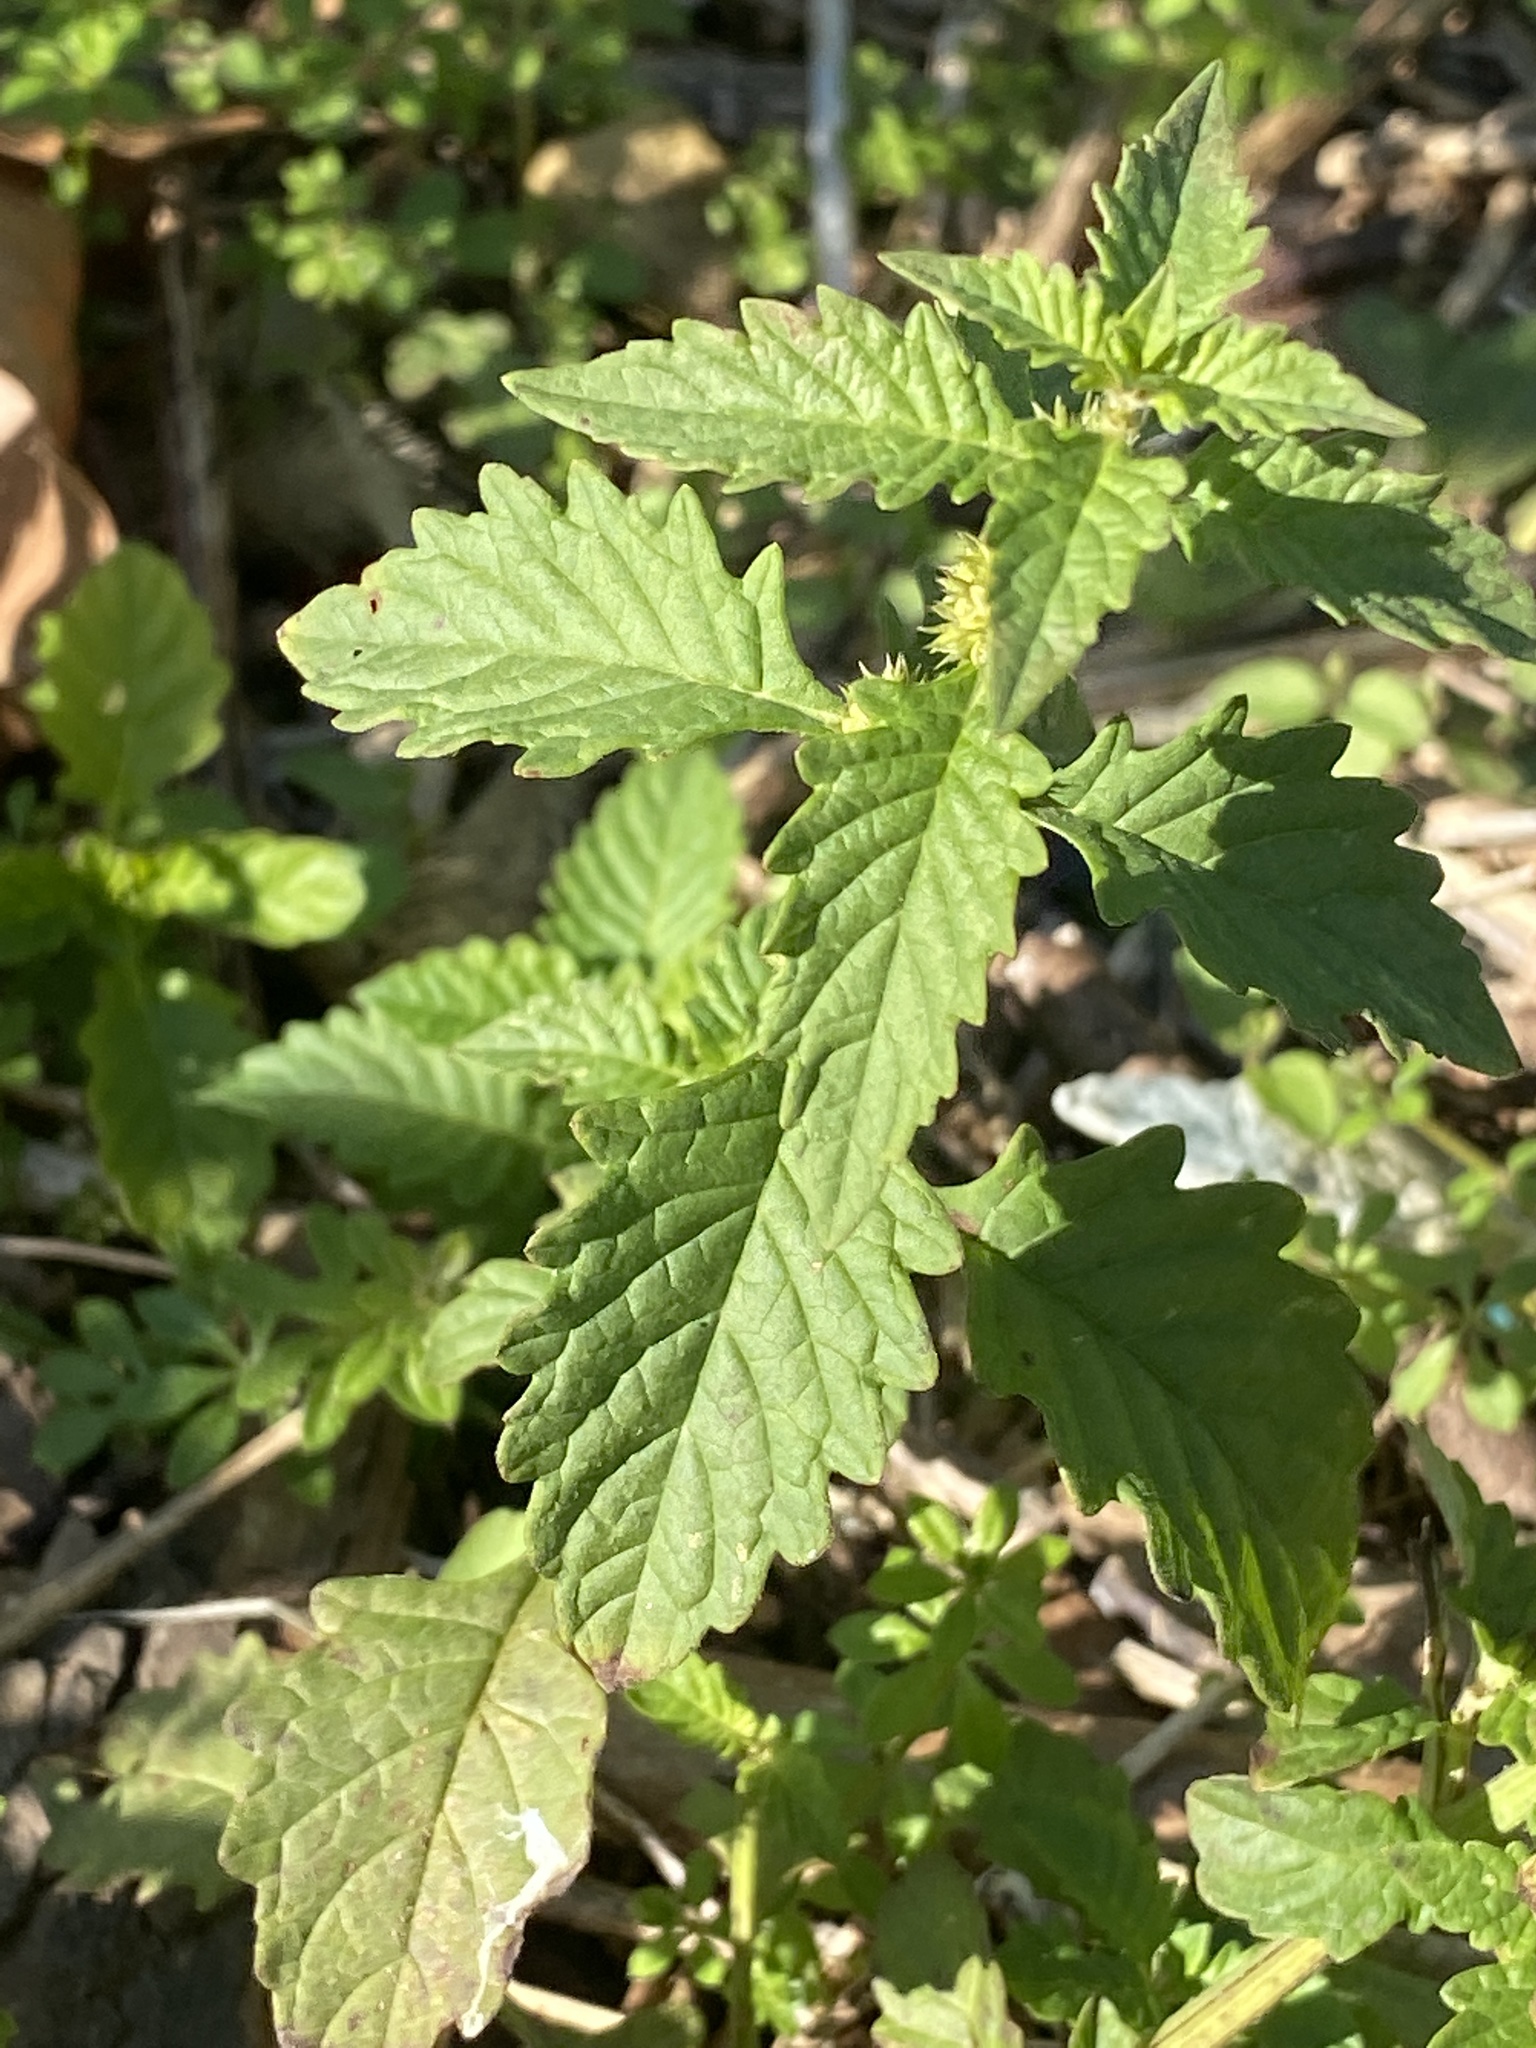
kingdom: Plantae
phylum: Tracheophyta
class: Magnoliopsida
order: Lamiales
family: Lamiaceae
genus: Lycopus
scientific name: Lycopus europaeus
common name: European bugleweed
